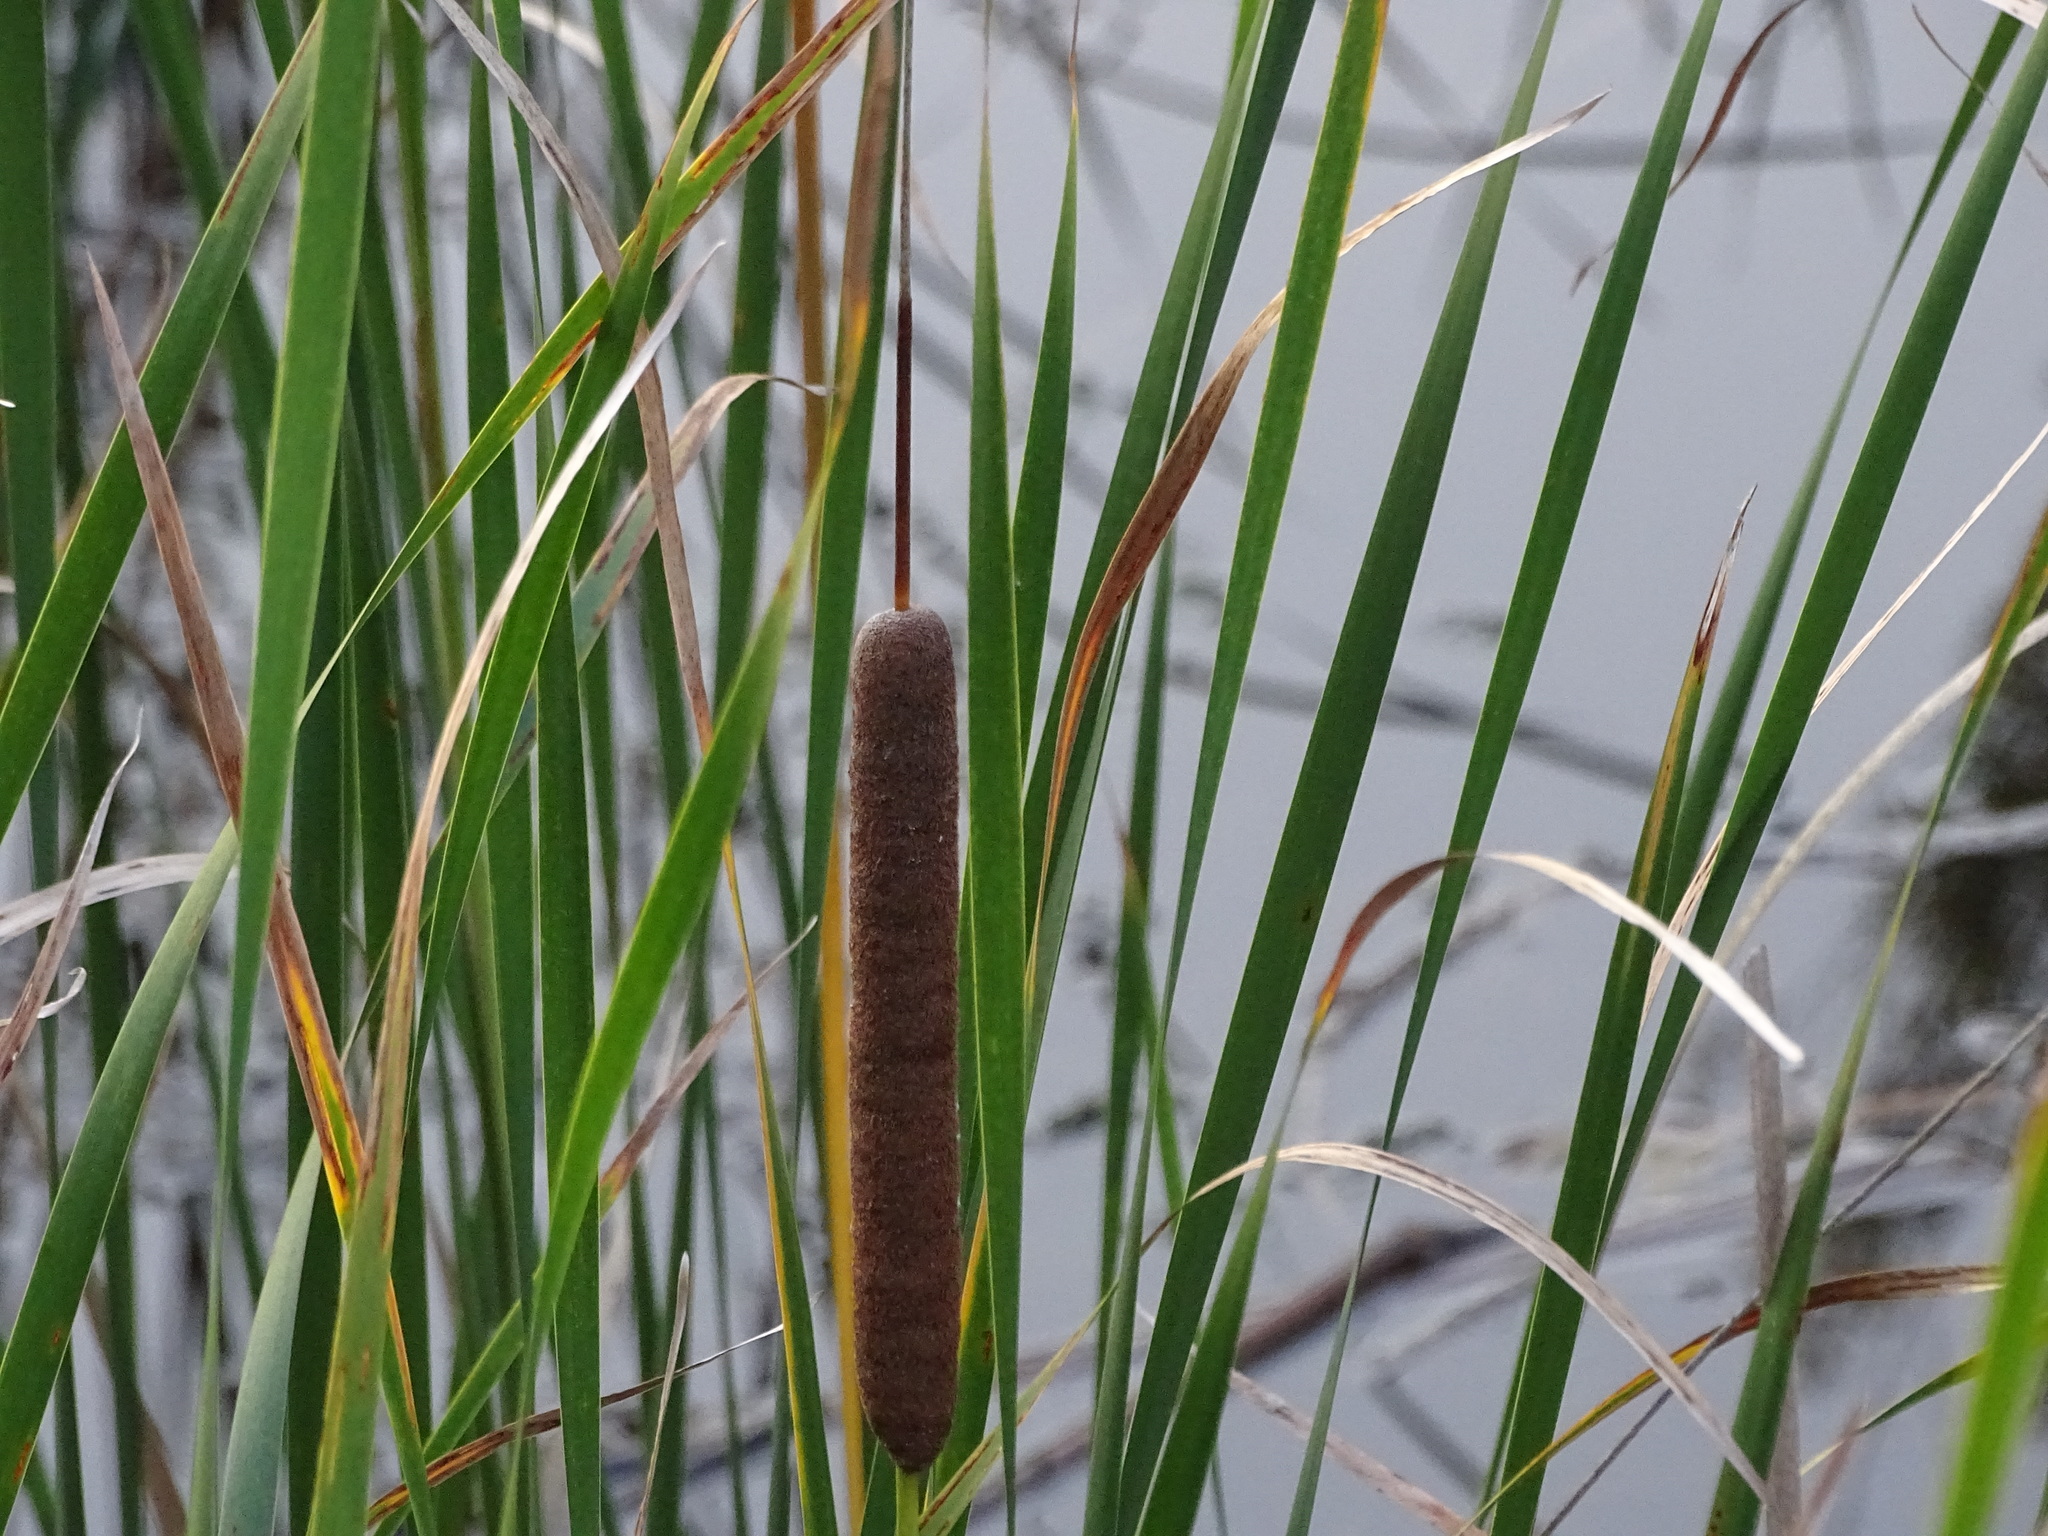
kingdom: Plantae
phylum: Tracheophyta
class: Liliopsida
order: Poales
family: Typhaceae
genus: Typha
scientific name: Typha angustifolia
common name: Lesser bulrush
